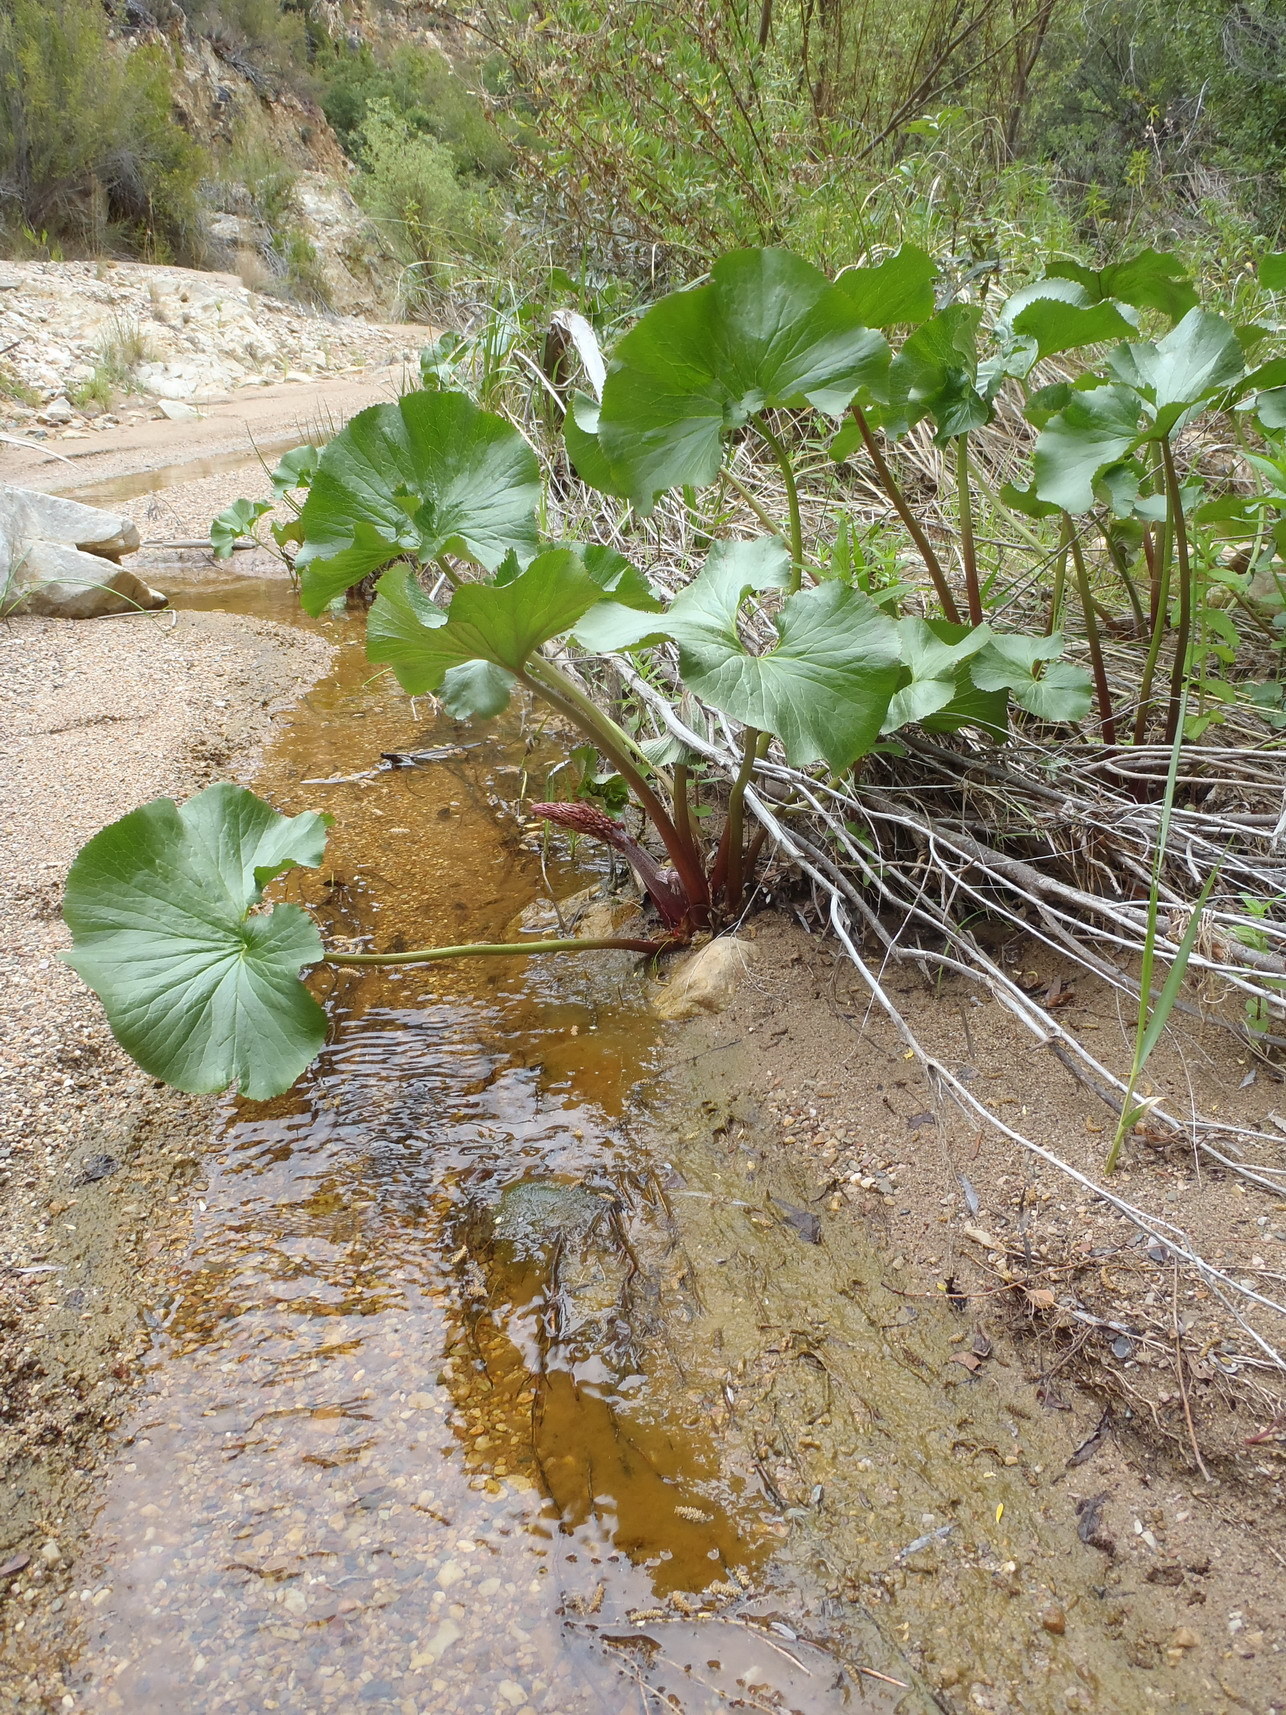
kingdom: Plantae
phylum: Tracheophyta
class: Magnoliopsida
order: Gunnerales
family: Gunneraceae
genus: Gunnera
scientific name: Gunnera perpensa
